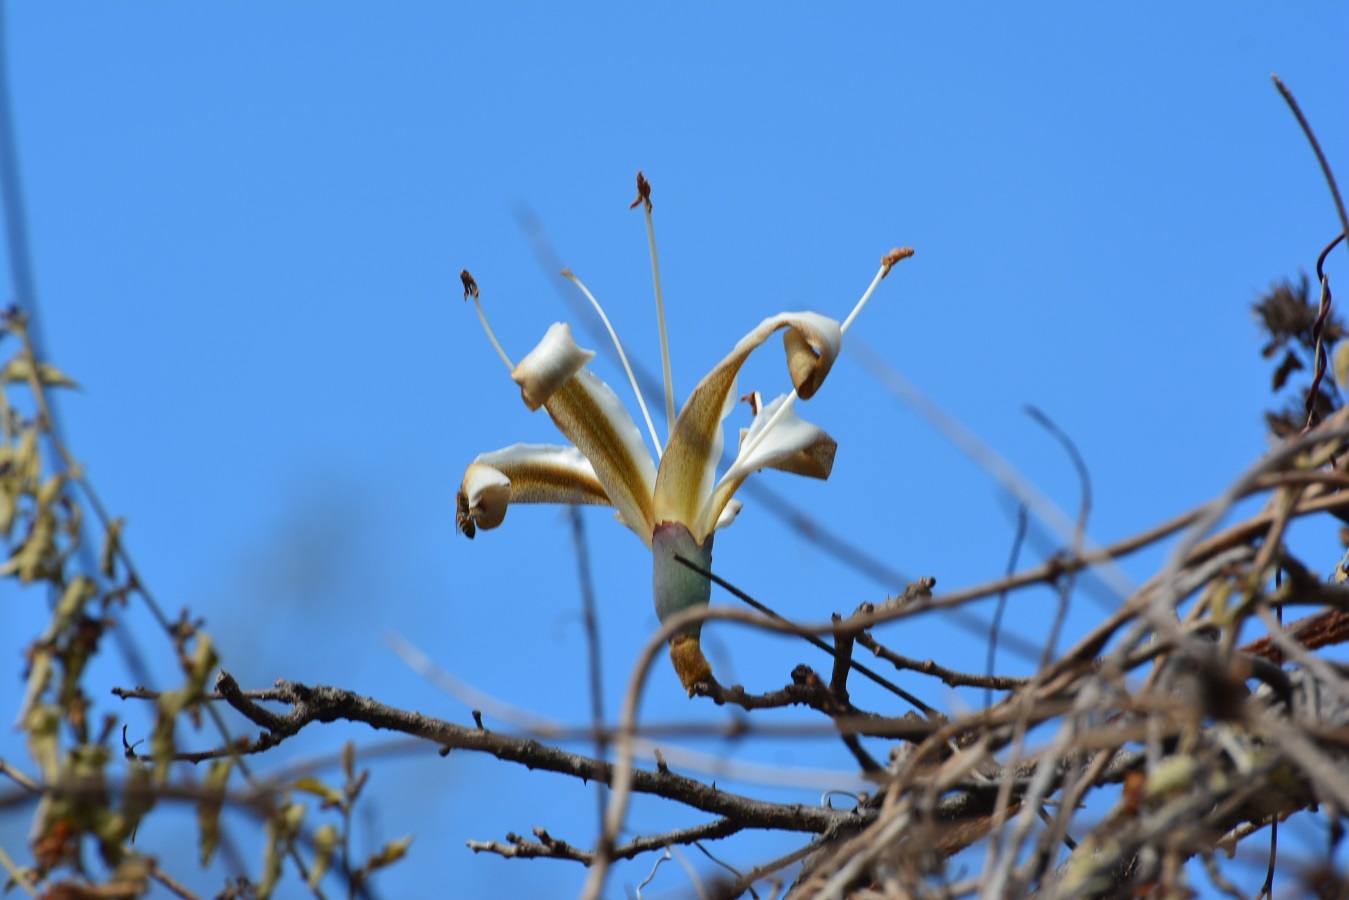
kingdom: Plantae
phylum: Tracheophyta
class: Magnoliopsida
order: Malvales
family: Malvaceae
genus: Ceiba
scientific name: Ceiba aesculifolia
